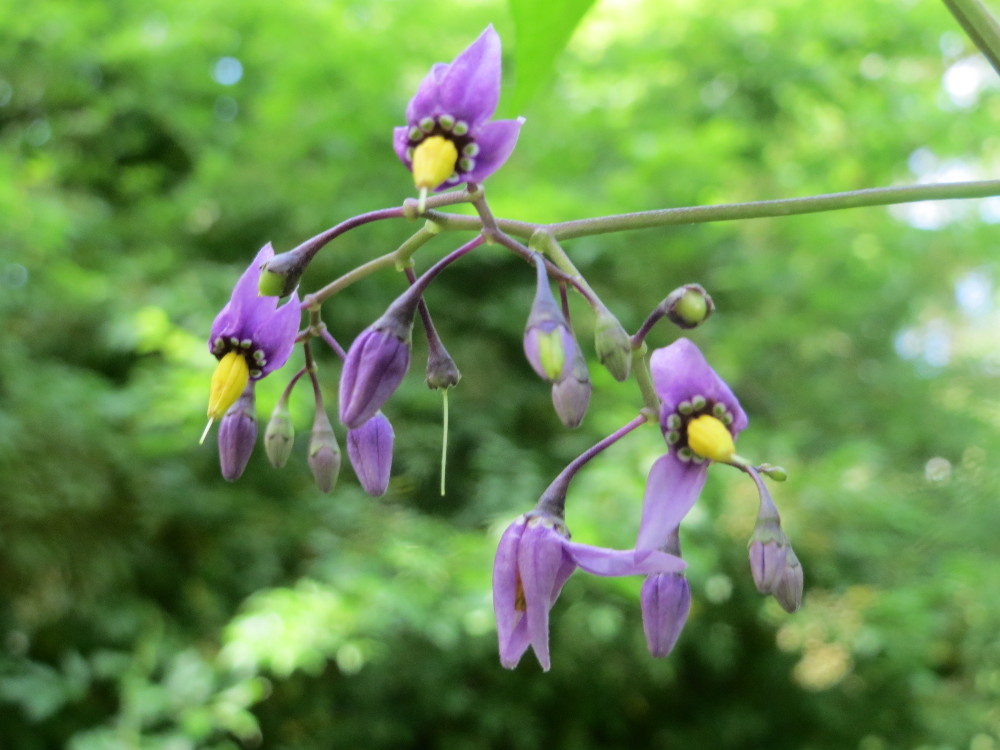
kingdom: Plantae
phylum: Tracheophyta
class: Magnoliopsida
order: Solanales
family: Solanaceae
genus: Solanum
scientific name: Solanum dulcamara
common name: Climbing nightshade
